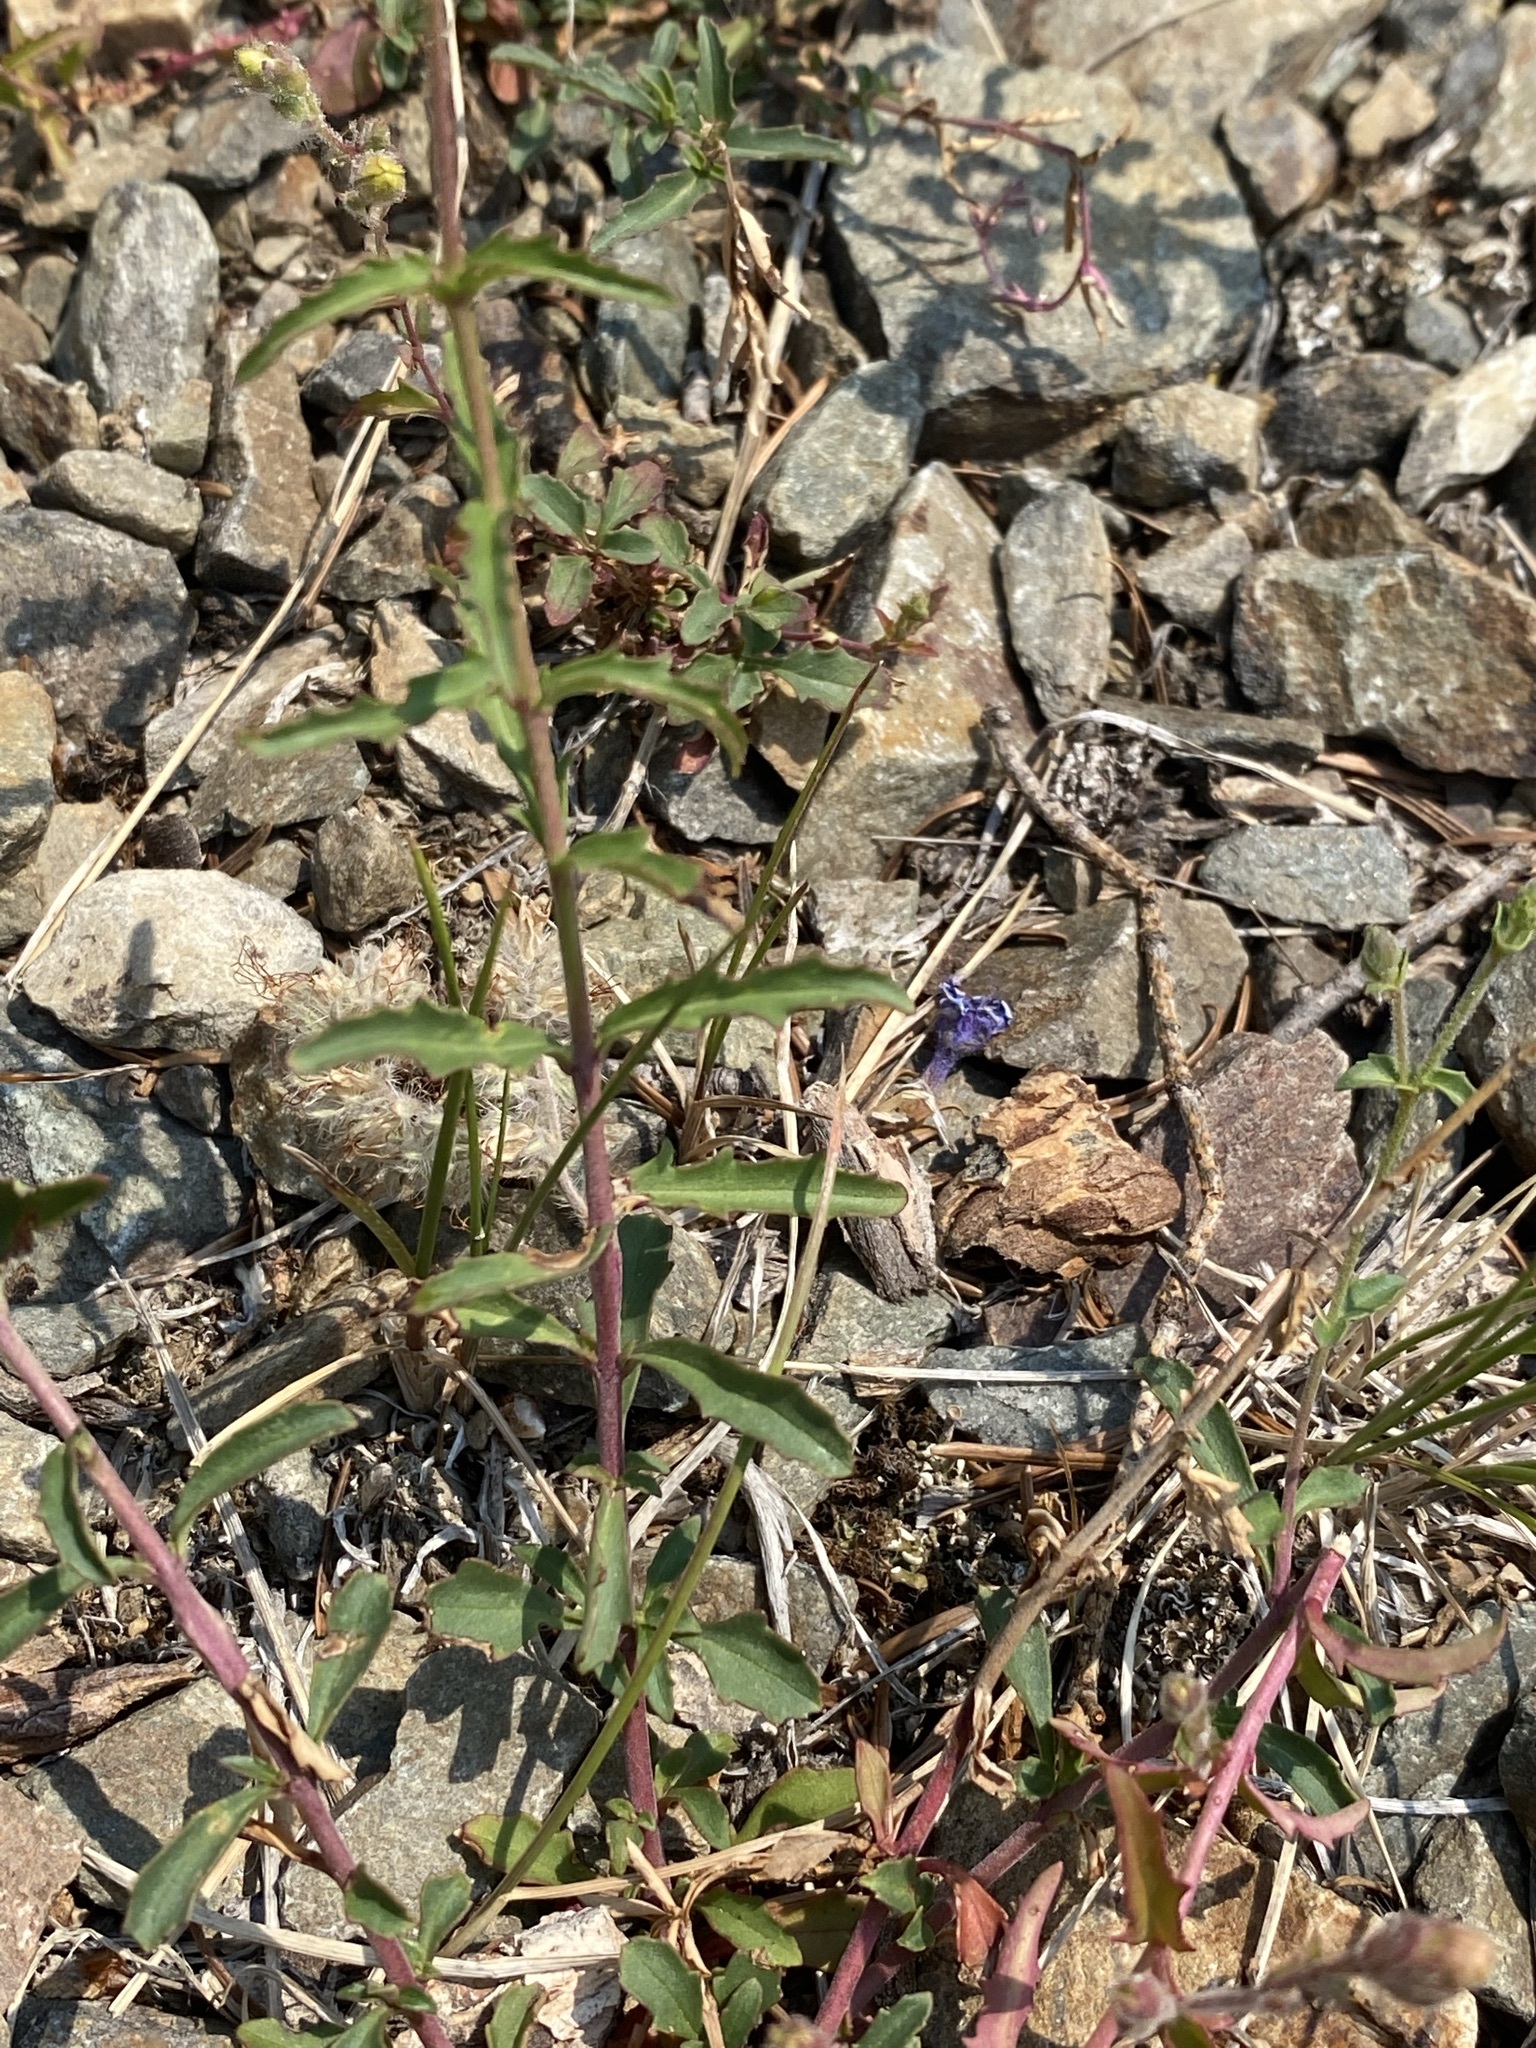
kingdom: Plantae
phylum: Tracheophyta
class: Magnoliopsida
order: Lamiales
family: Plantaginaceae
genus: Penstemon
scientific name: Penstemon diphyllus
